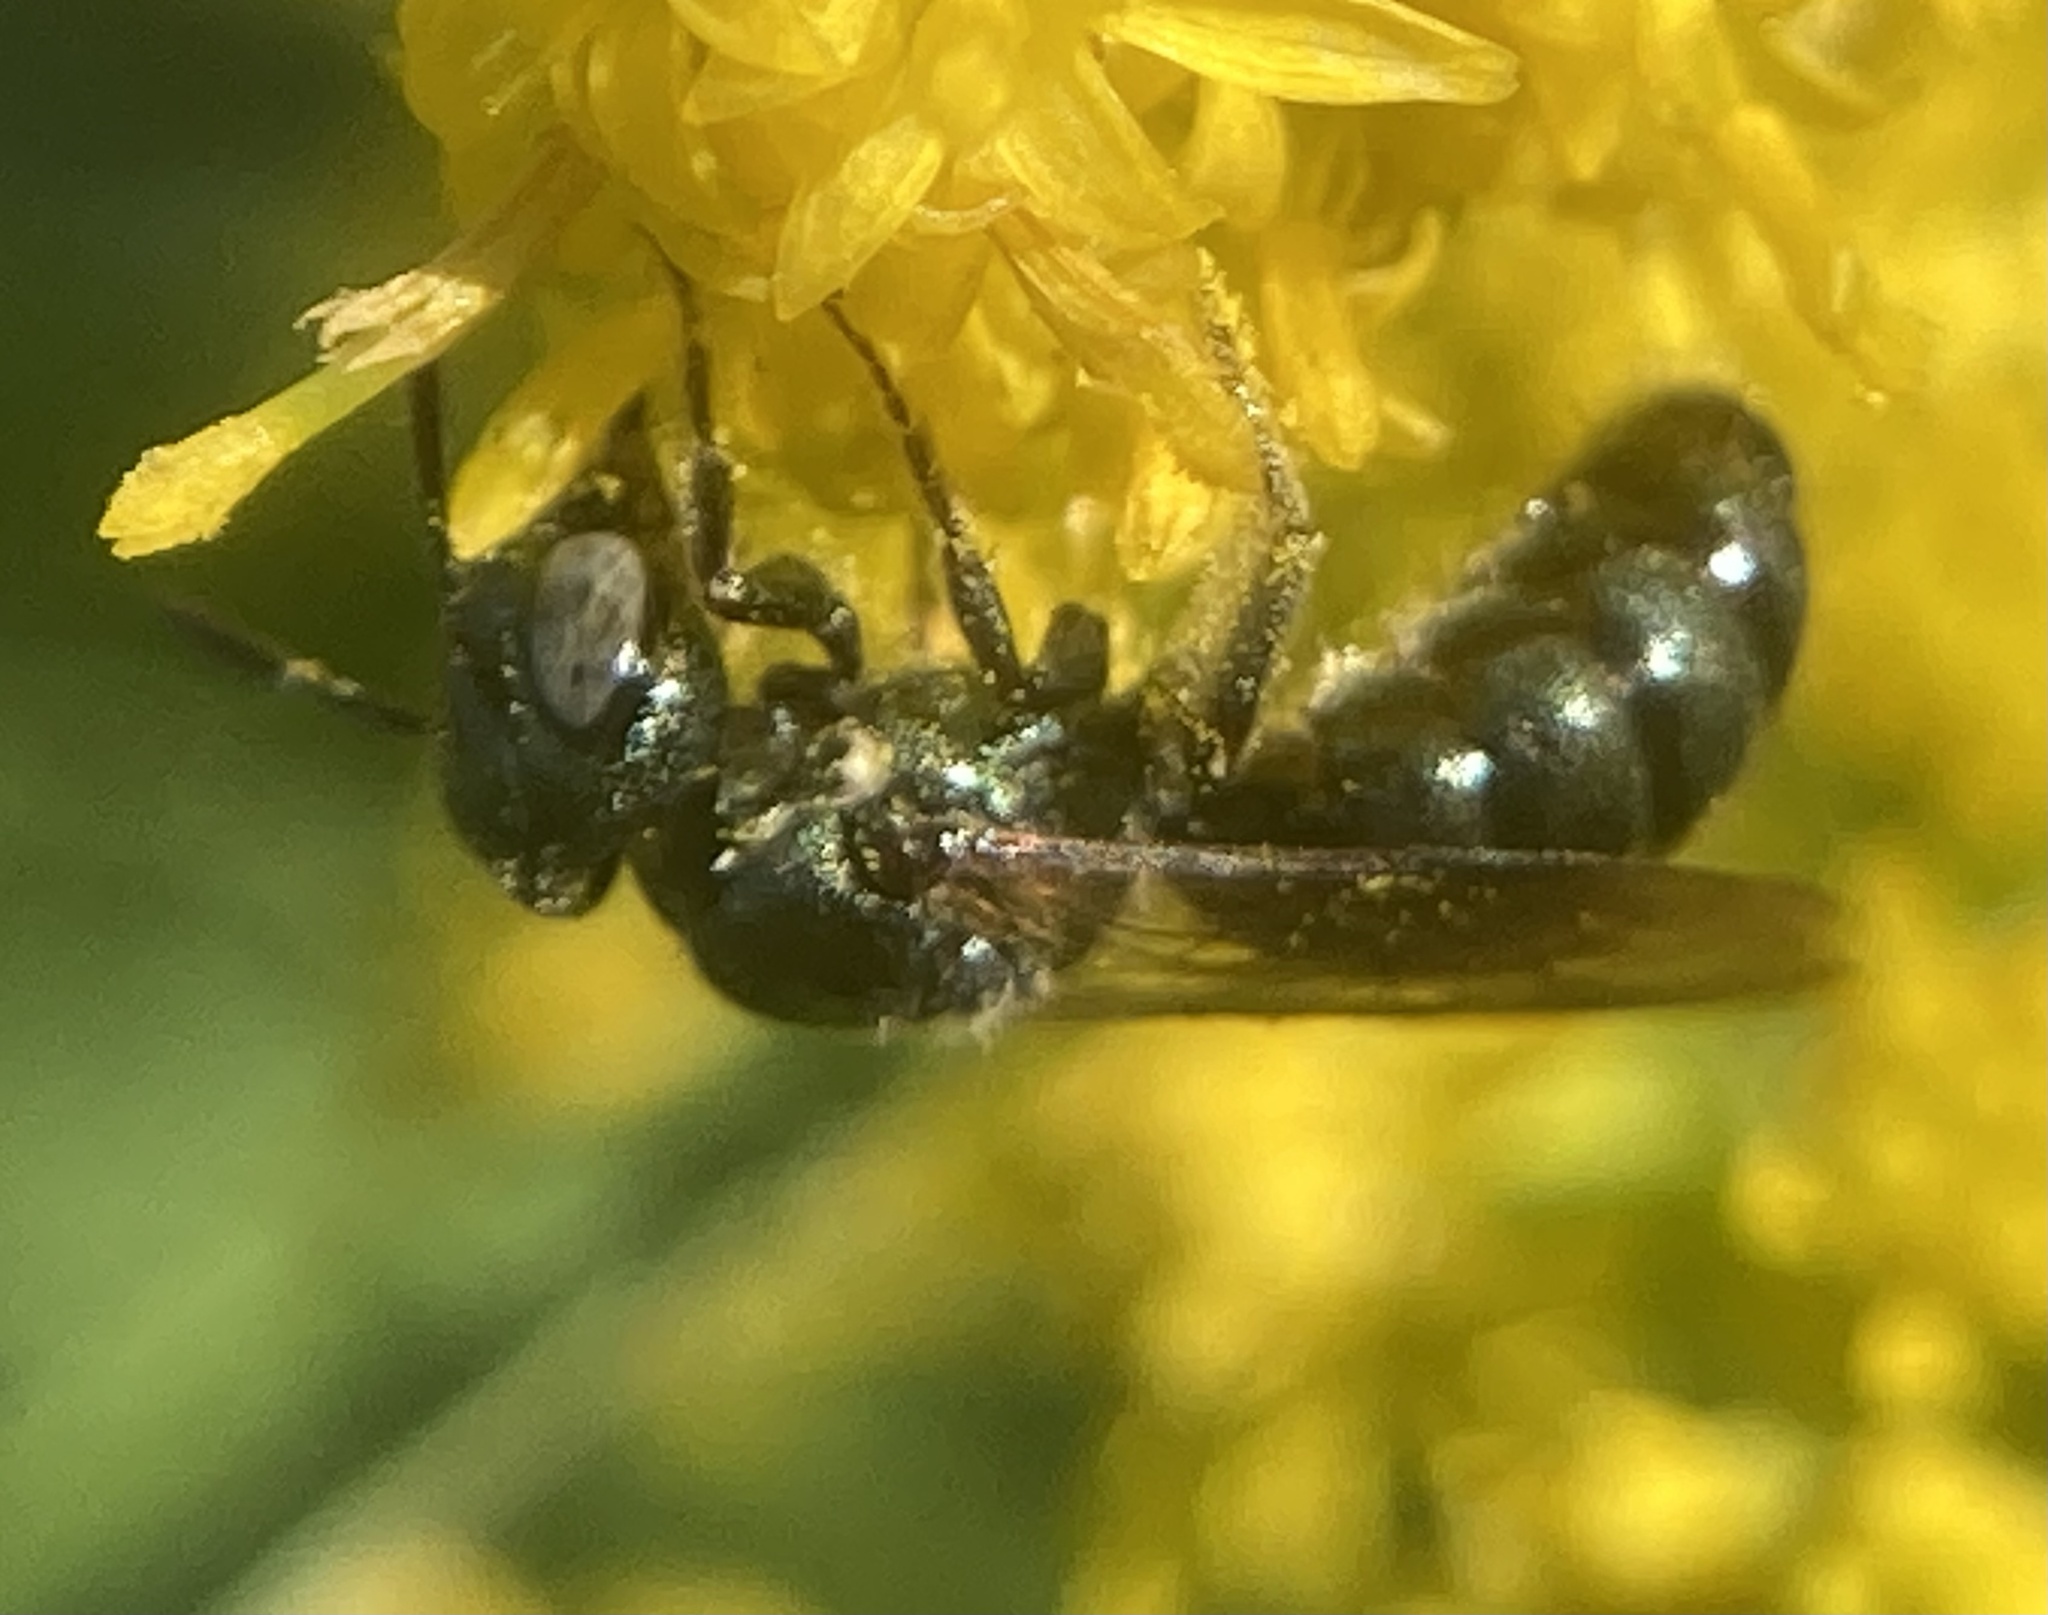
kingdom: Animalia
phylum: Arthropoda
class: Insecta
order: Hymenoptera
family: Apidae
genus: Zadontomerus
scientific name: Zadontomerus
